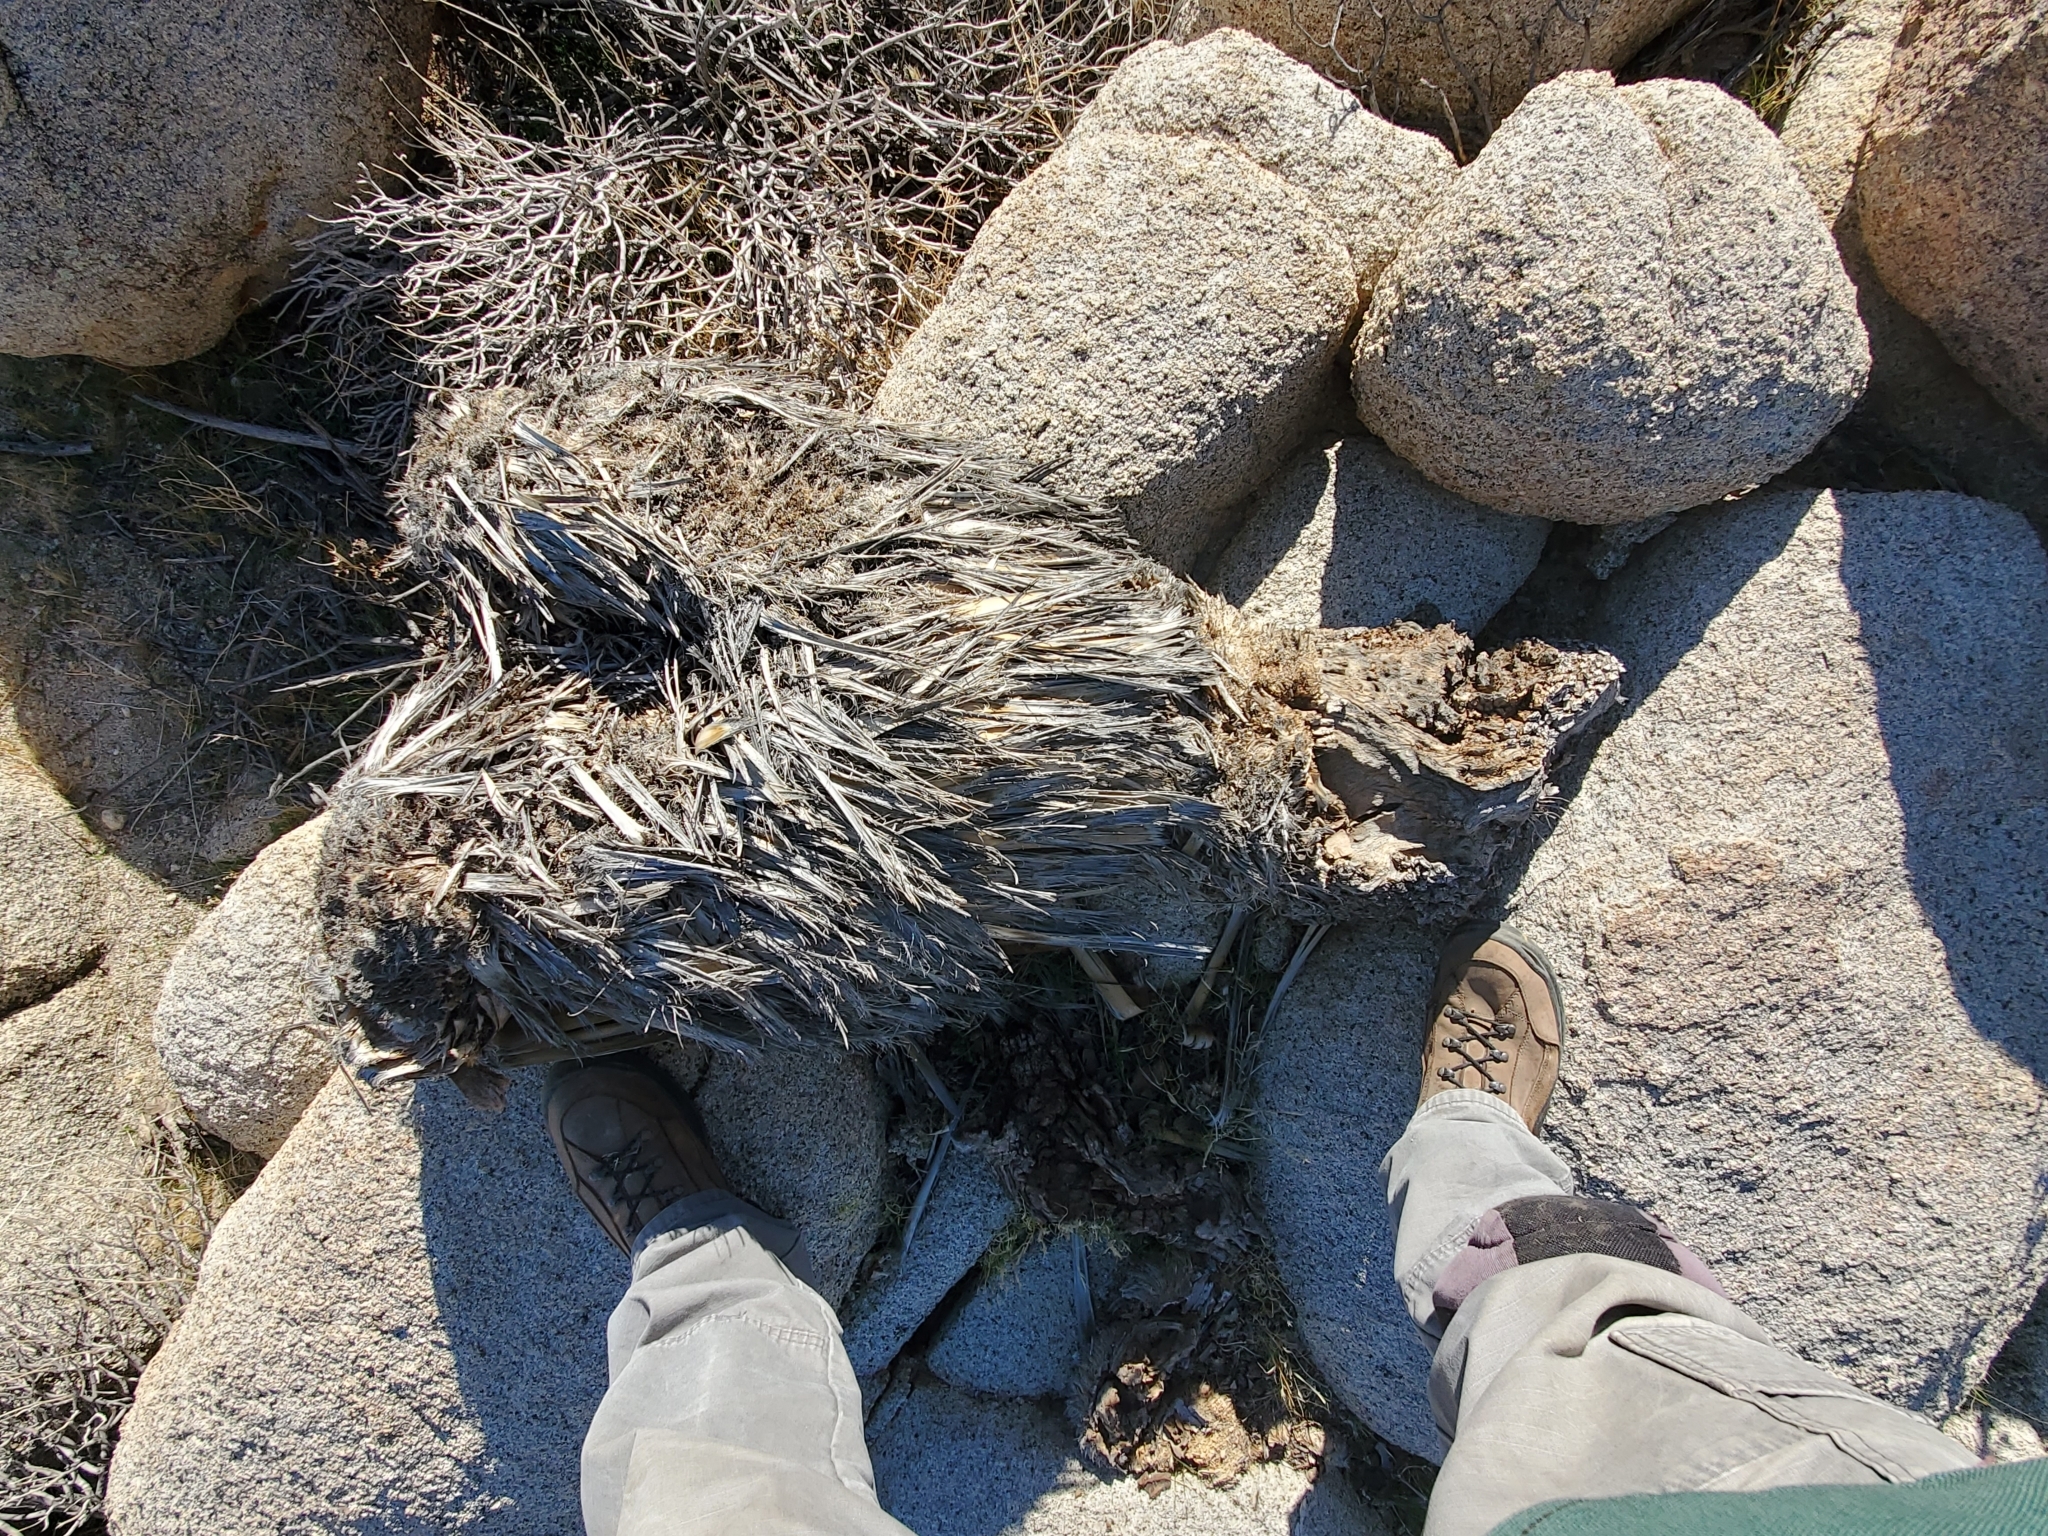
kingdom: Plantae
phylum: Tracheophyta
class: Liliopsida
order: Asparagales
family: Asparagaceae
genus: Nolina
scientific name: Nolina bigelovii
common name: Bigelow bear-grass
